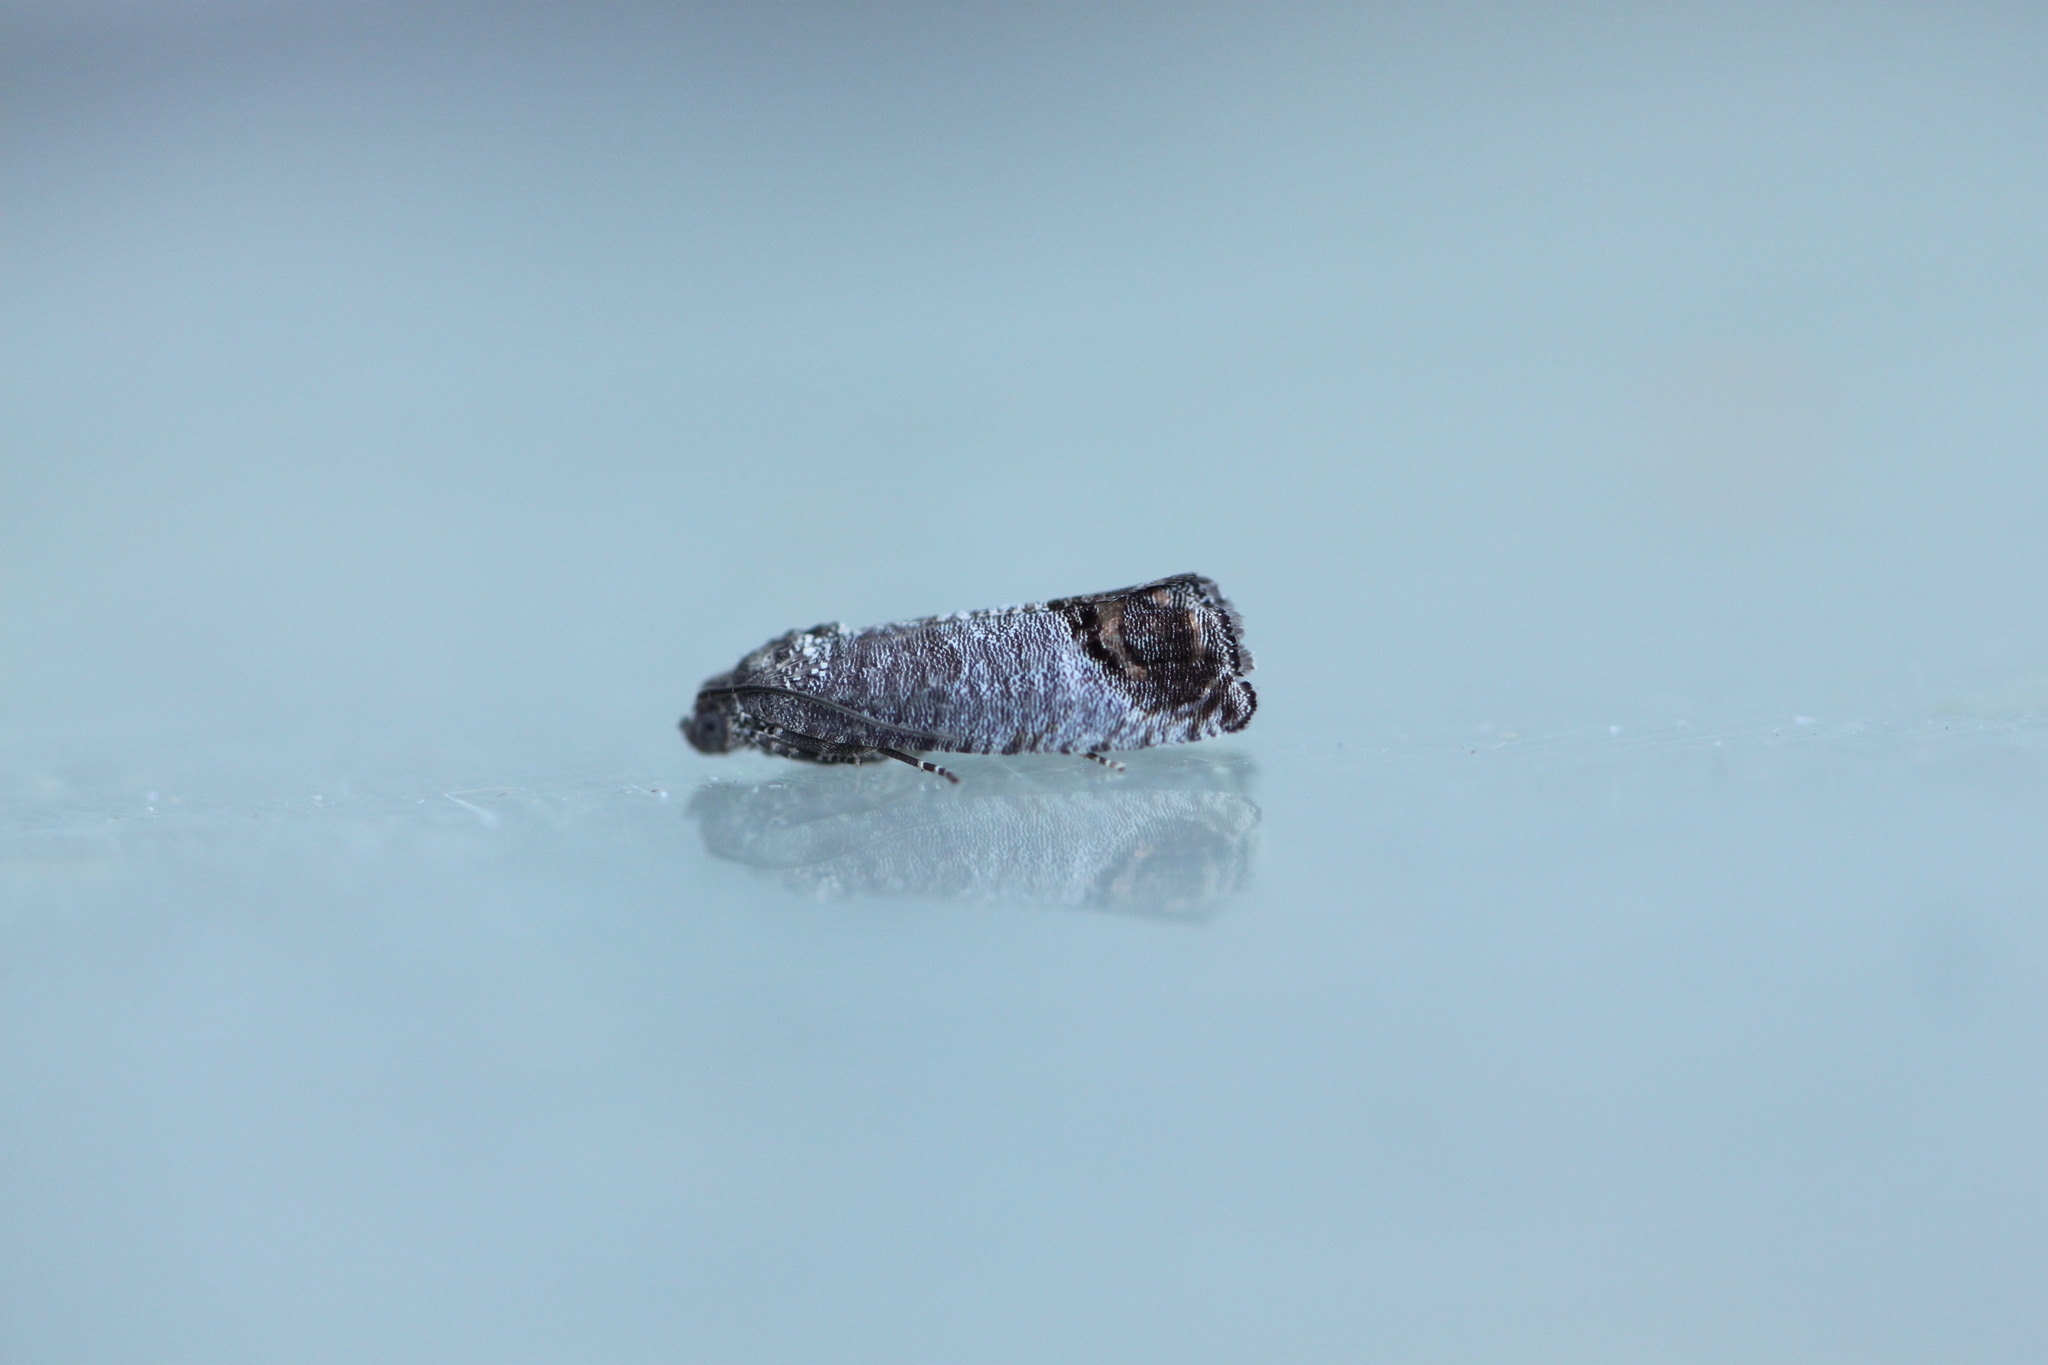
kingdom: Animalia
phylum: Arthropoda
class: Insecta
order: Lepidoptera
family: Tortricidae
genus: Cydia
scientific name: Cydia pomonella
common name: Codling moth
